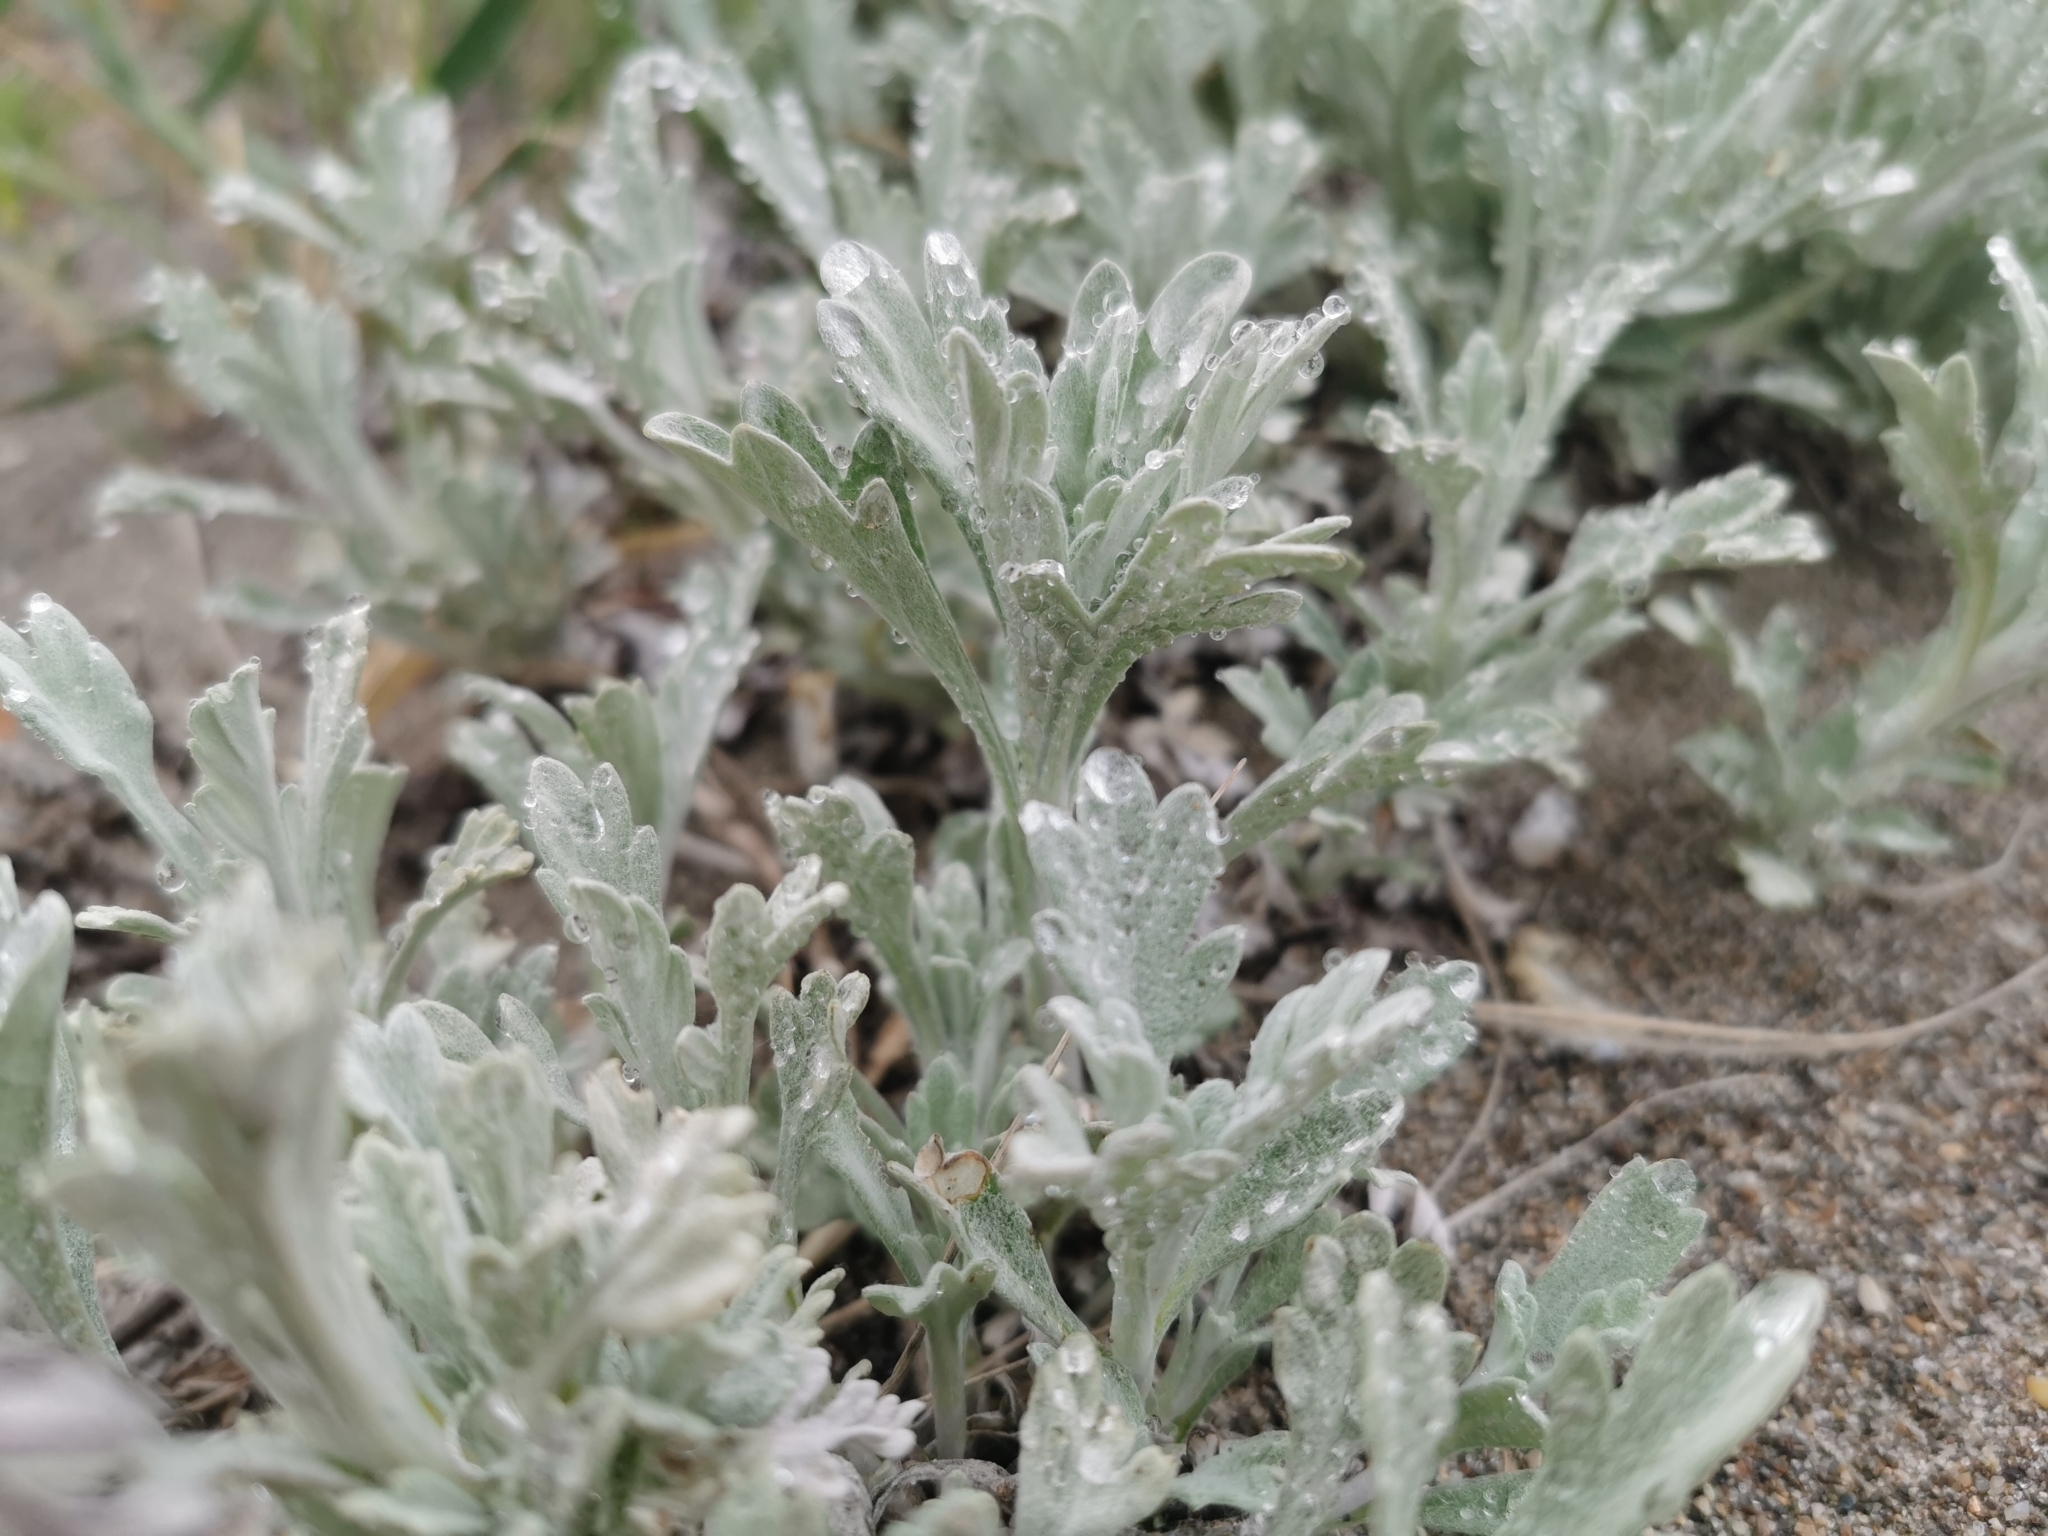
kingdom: Plantae
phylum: Tracheophyta
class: Magnoliopsida
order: Asterales
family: Asteraceae
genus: Artemisia
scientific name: Artemisia stelleriana
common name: Beach wormwood
